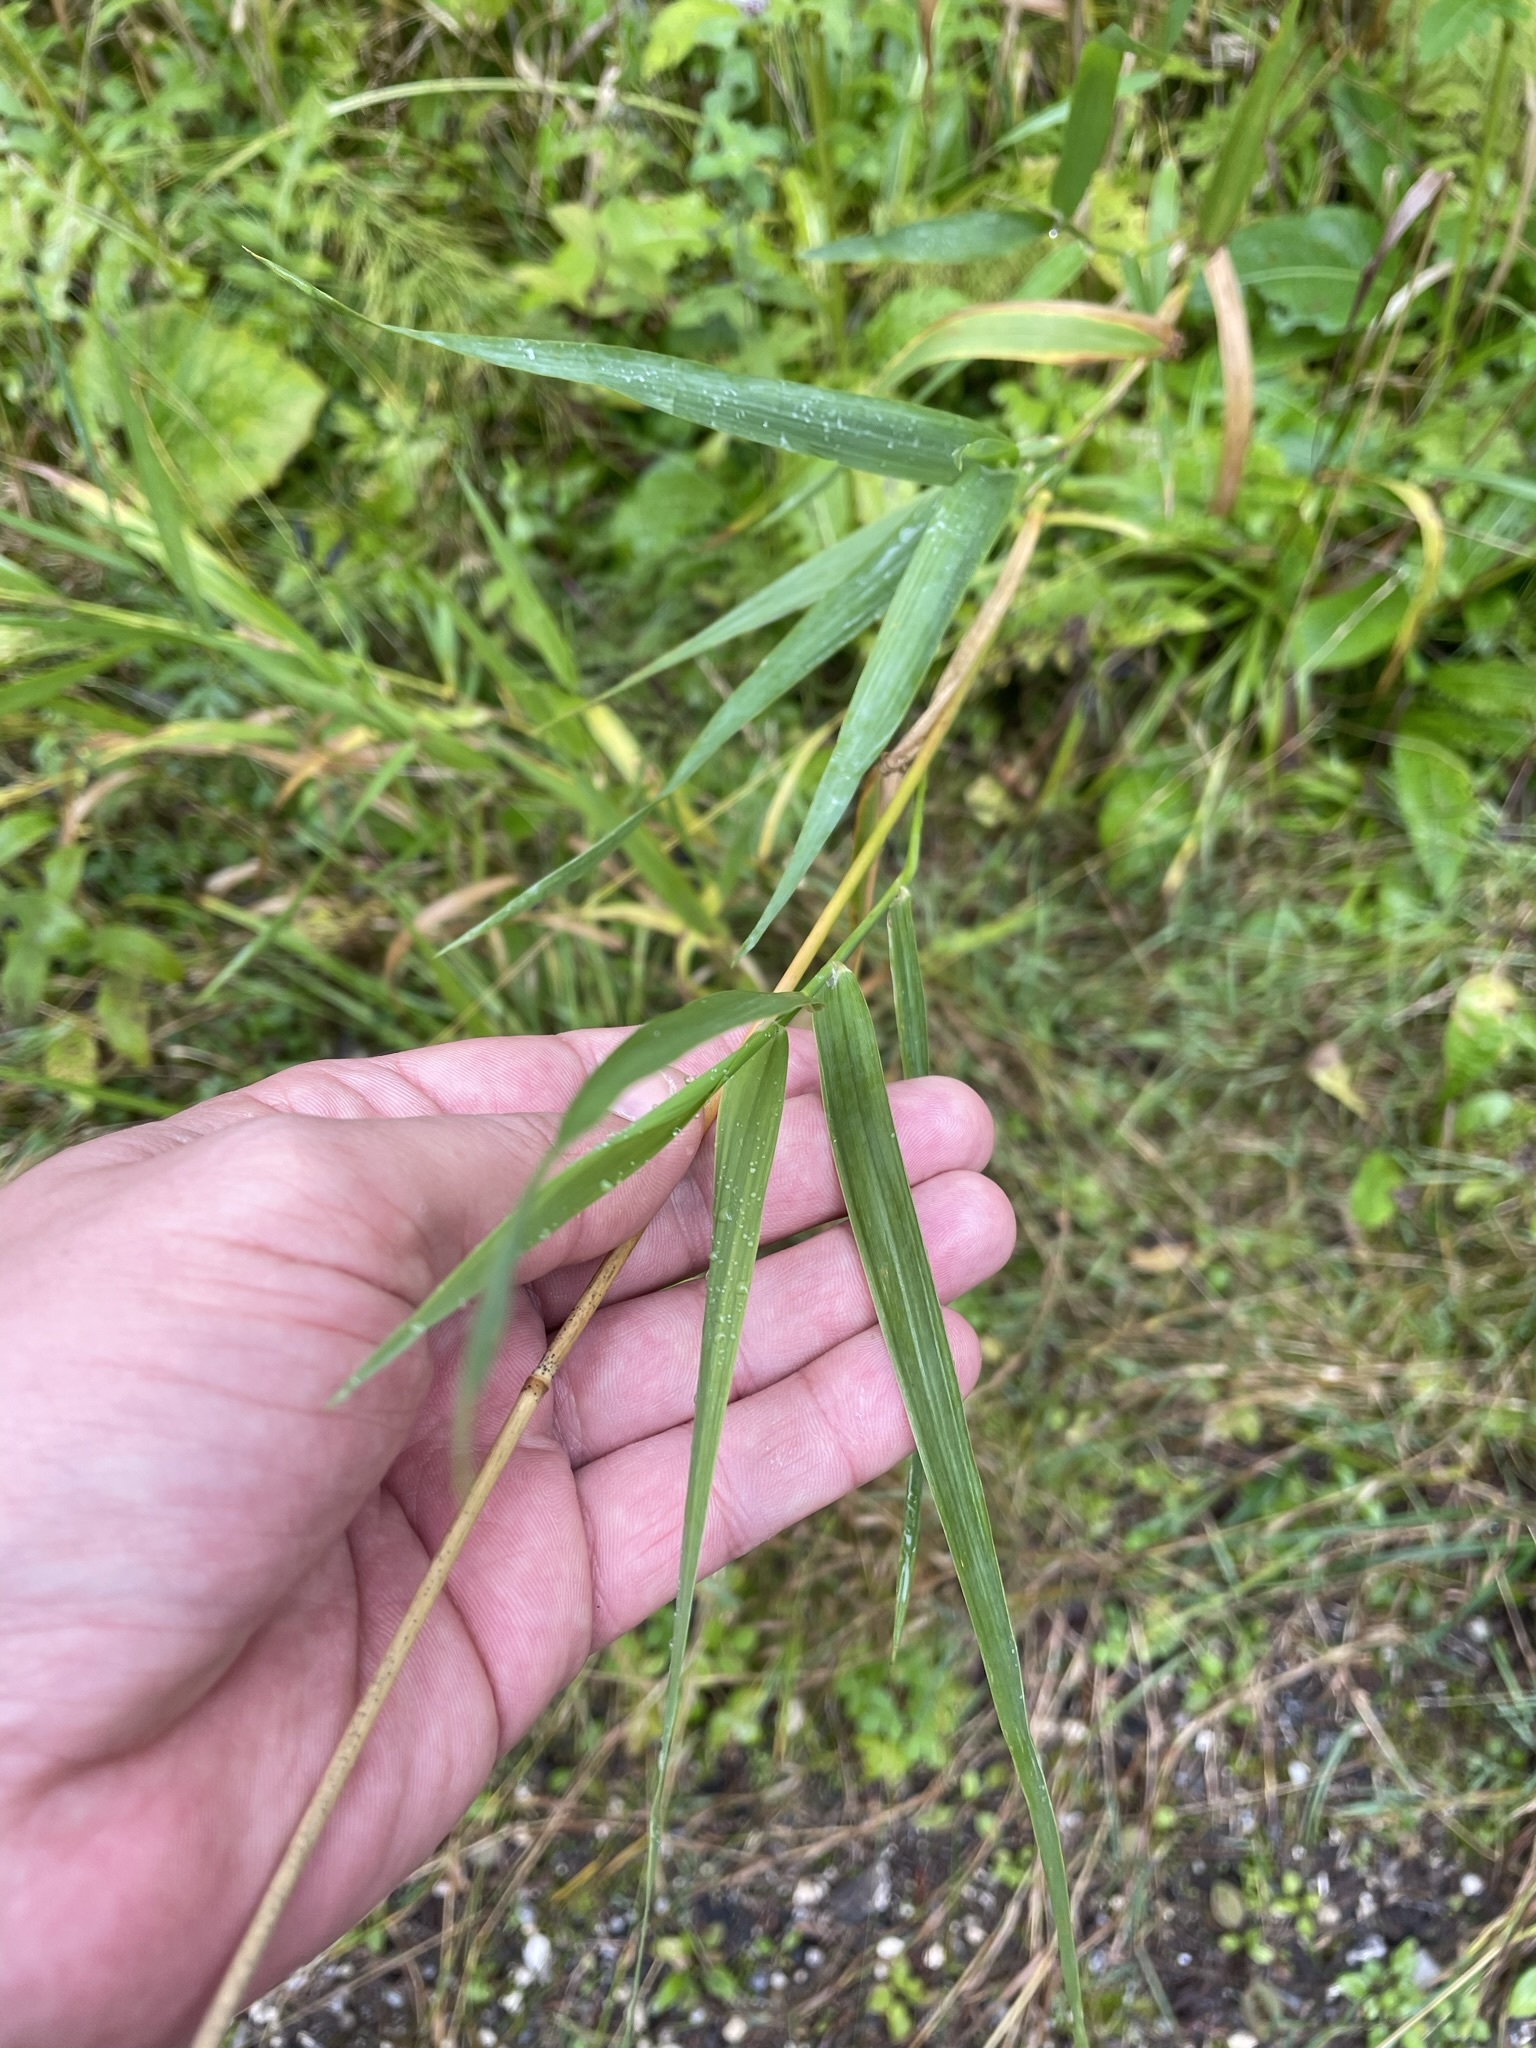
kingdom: Plantae
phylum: Tracheophyta
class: Liliopsida
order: Poales
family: Poaceae
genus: Phalaris
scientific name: Phalaris arundinacea
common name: Reed canary-grass
